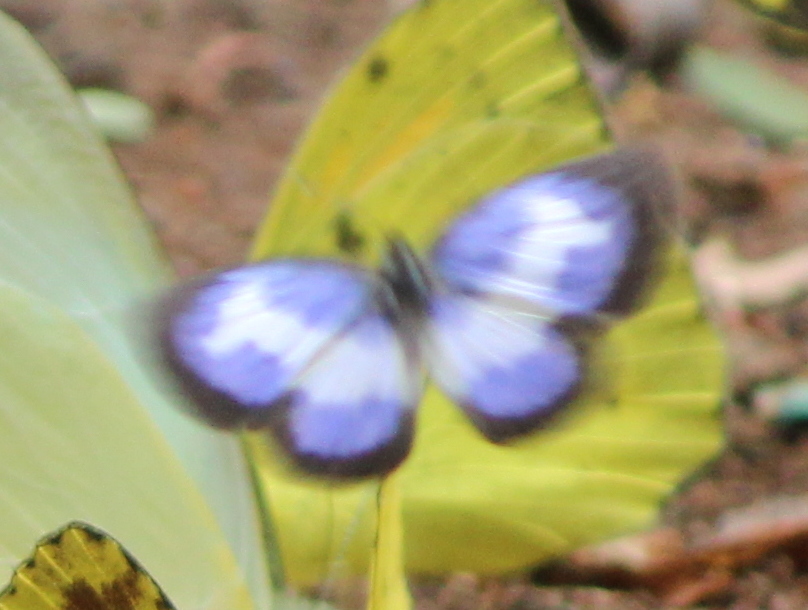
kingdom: Animalia
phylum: Arthropoda
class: Insecta
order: Lepidoptera
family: Lycaenidae
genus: Discolampa
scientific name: Discolampa ethion
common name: Banded blue pierrot
